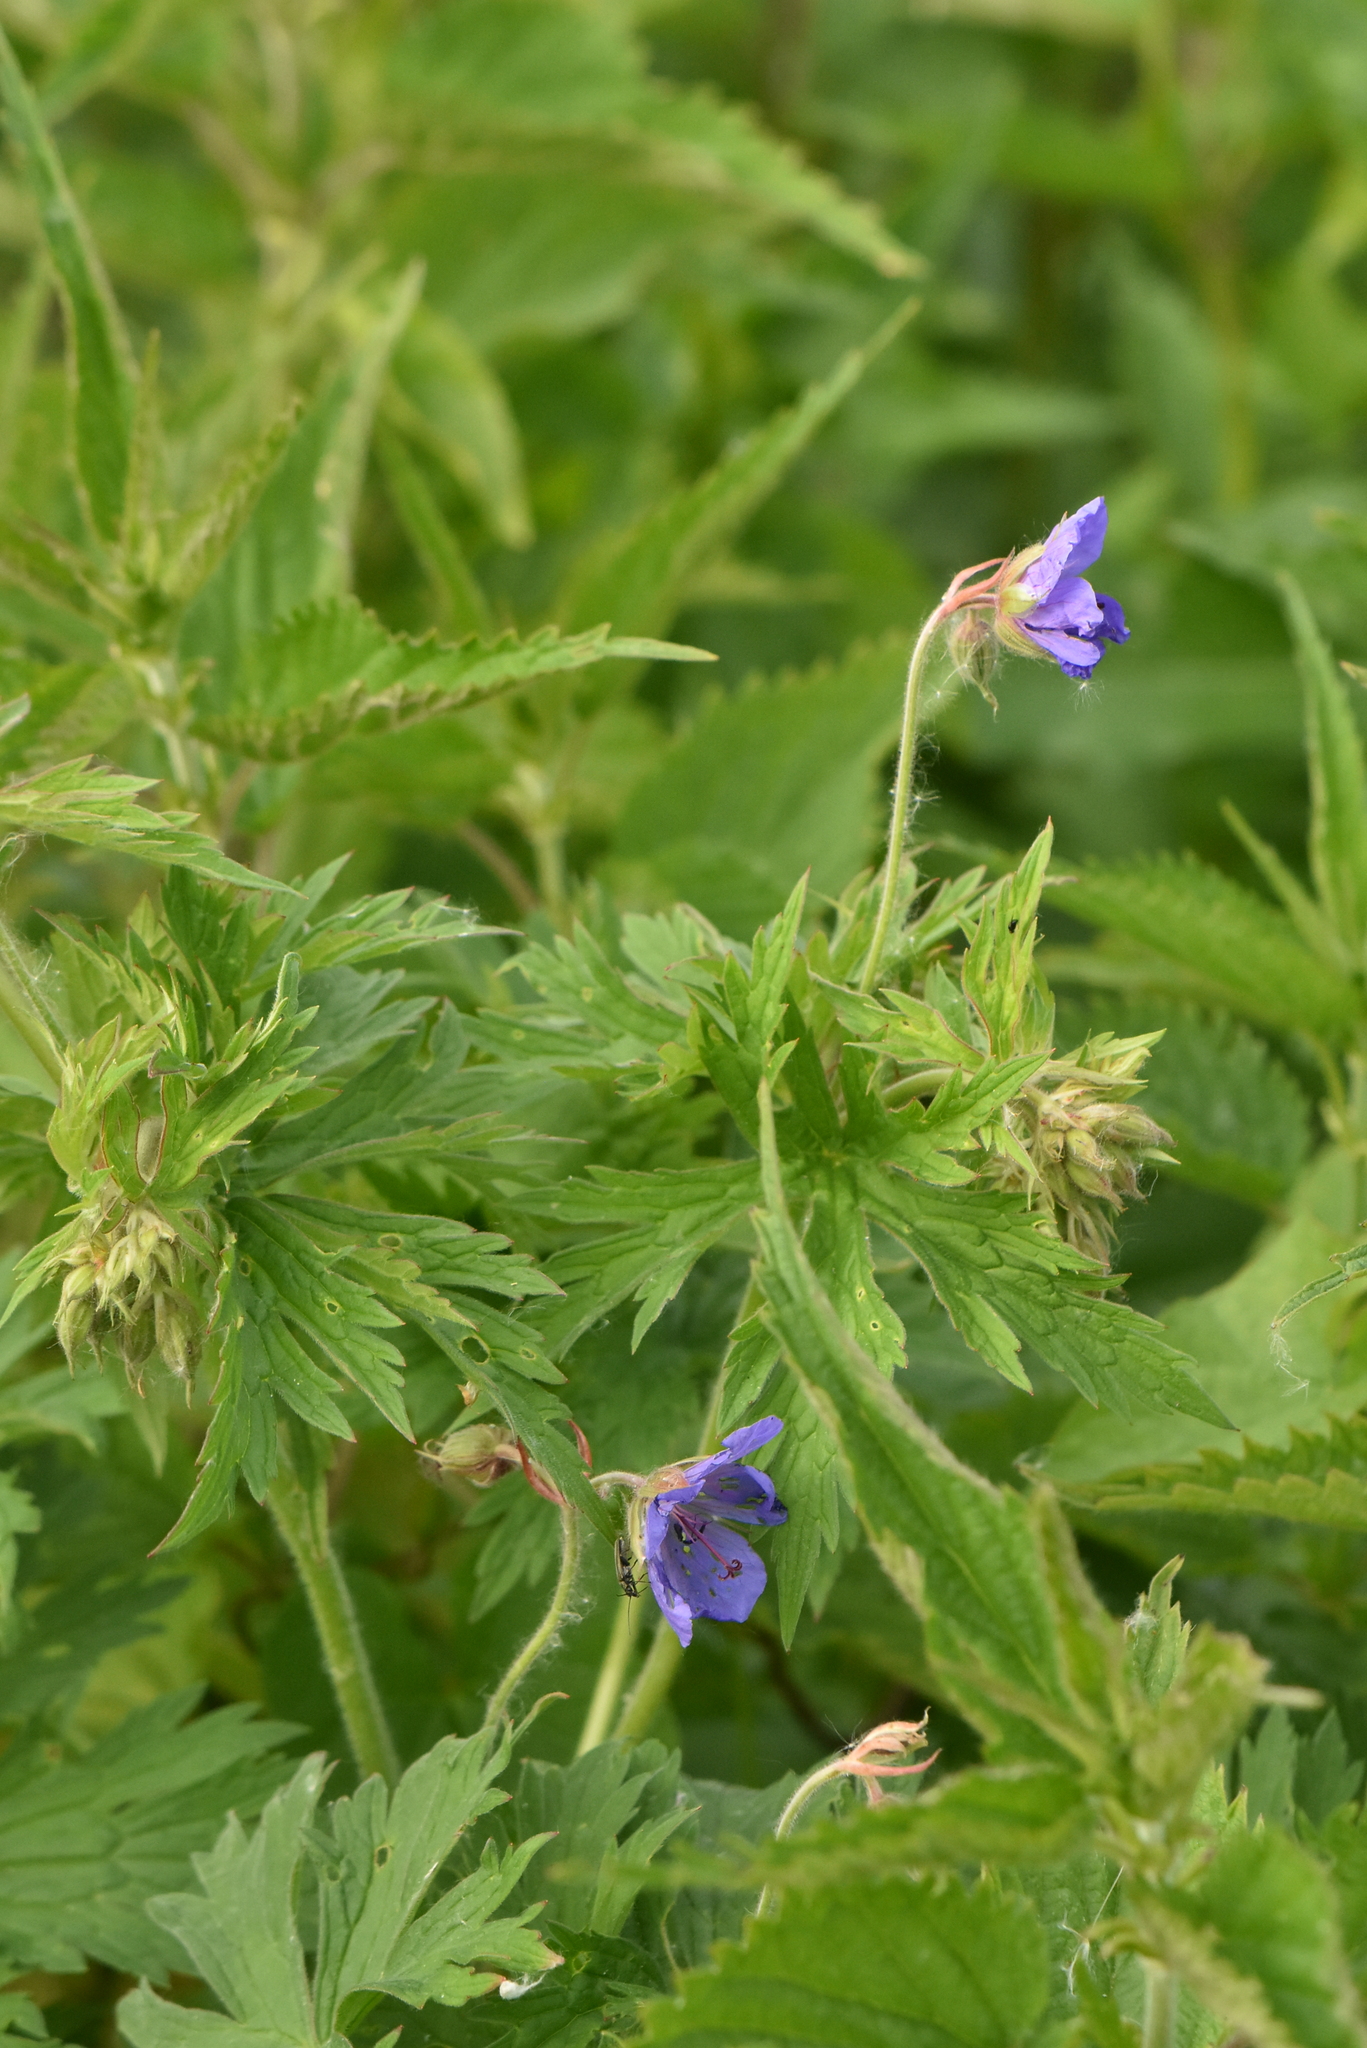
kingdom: Plantae
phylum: Tracheophyta
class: Magnoliopsida
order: Geraniales
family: Geraniaceae
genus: Geranium
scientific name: Geranium pratense
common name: Meadow crane's-bill
